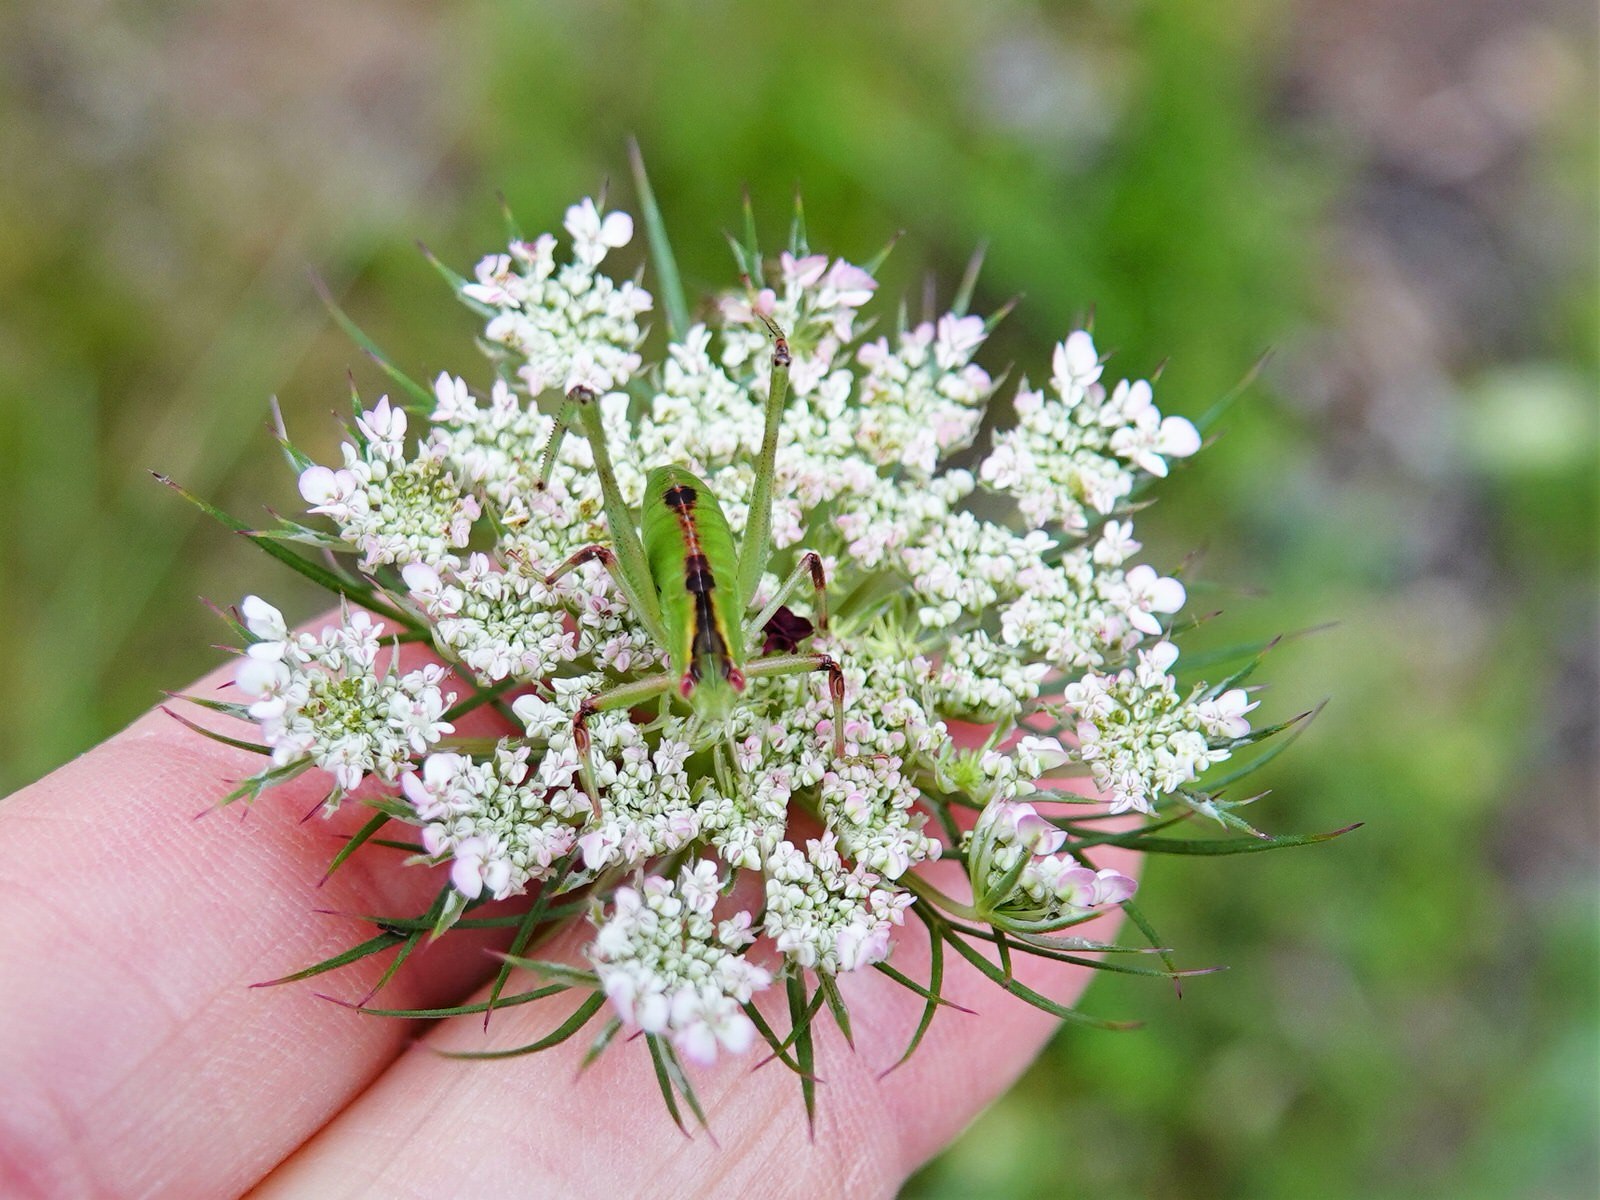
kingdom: Animalia
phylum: Arthropoda
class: Insecta
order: Orthoptera
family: Tettigoniidae
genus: Caedicia
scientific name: Caedicia simplex
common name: Common garden katydid
